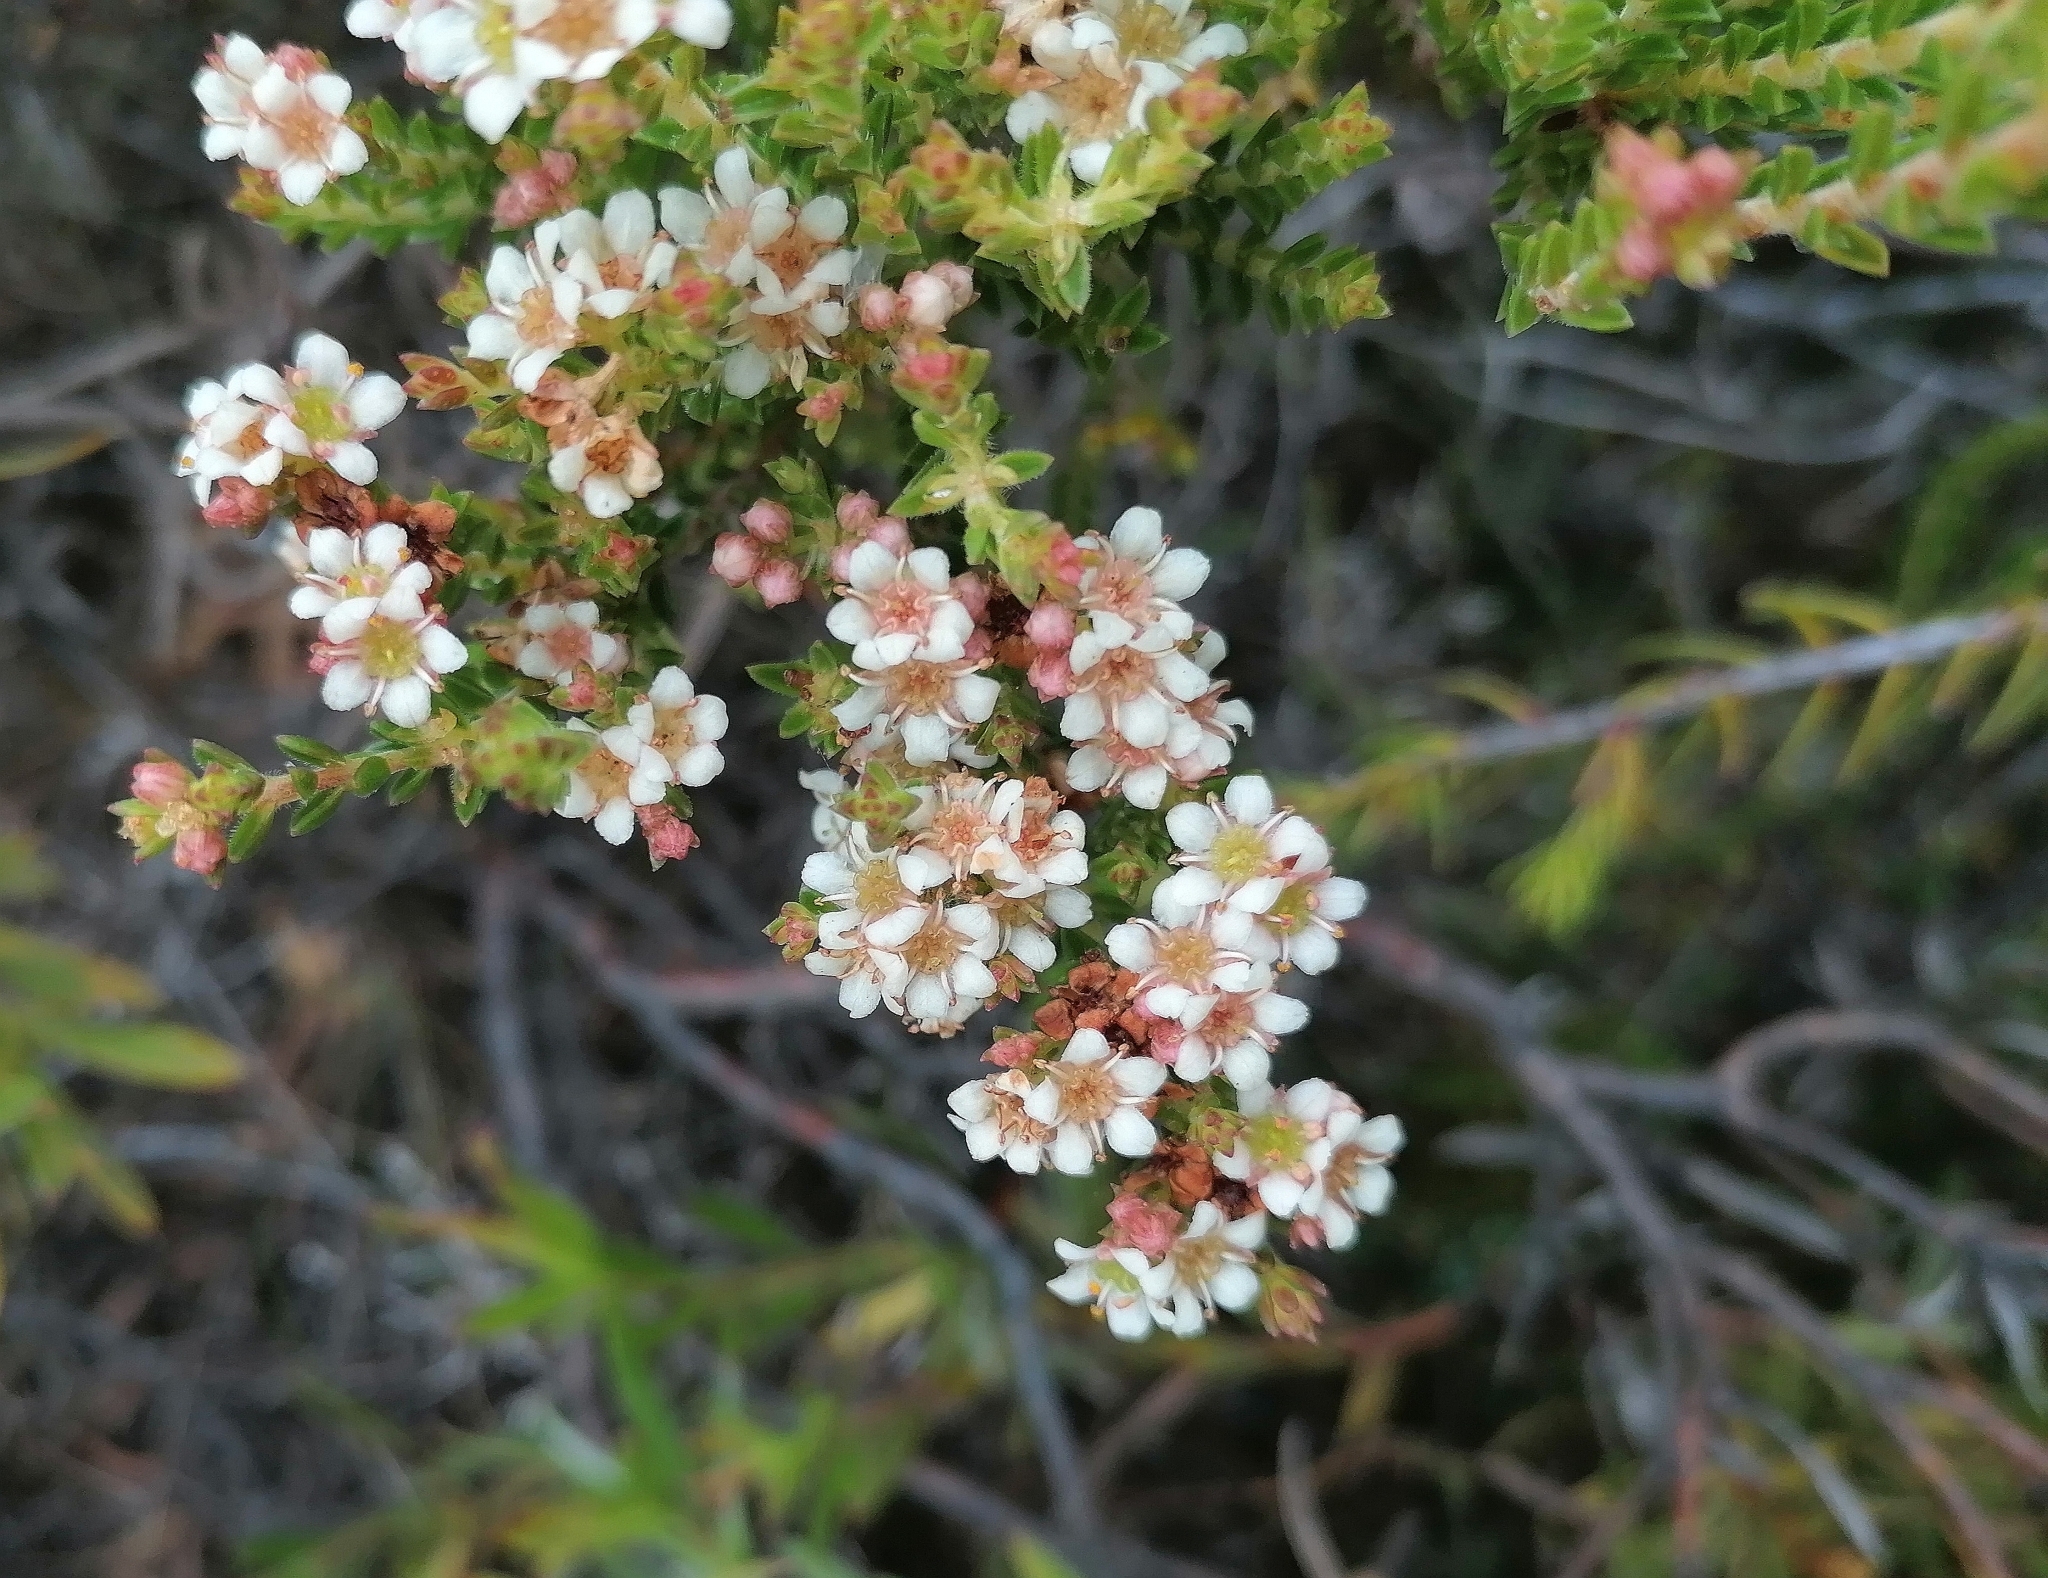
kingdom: Plantae
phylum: Tracheophyta
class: Magnoliopsida
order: Sapindales
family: Rutaceae
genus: Diosma
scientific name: Diosma oppositifolia
